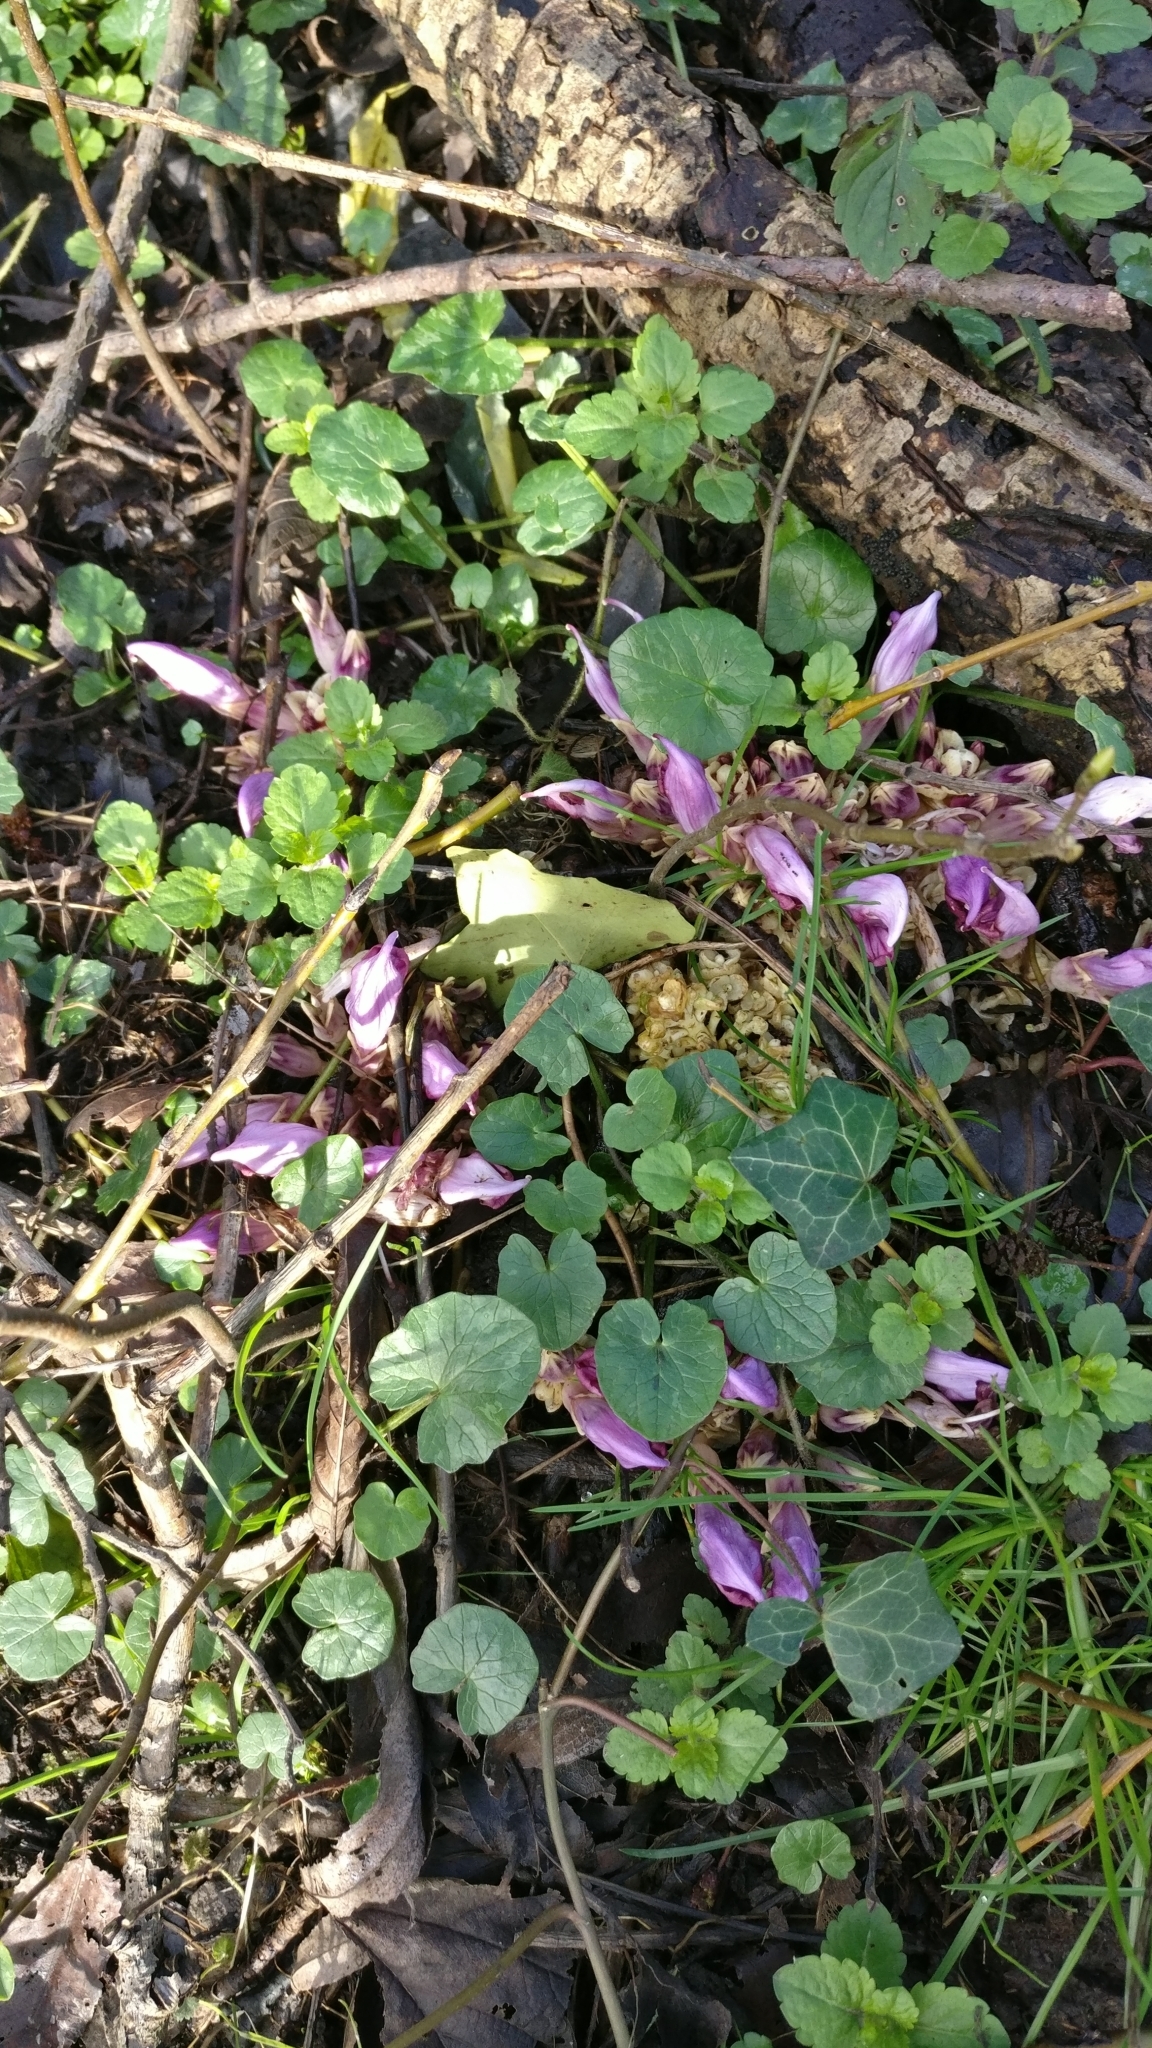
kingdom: Plantae
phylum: Tracheophyta
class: Magnoliopsida
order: Lamiales
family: Orobanchaceae
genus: Lathraea
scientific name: Lathraea clandestina
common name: Purple toothwort
